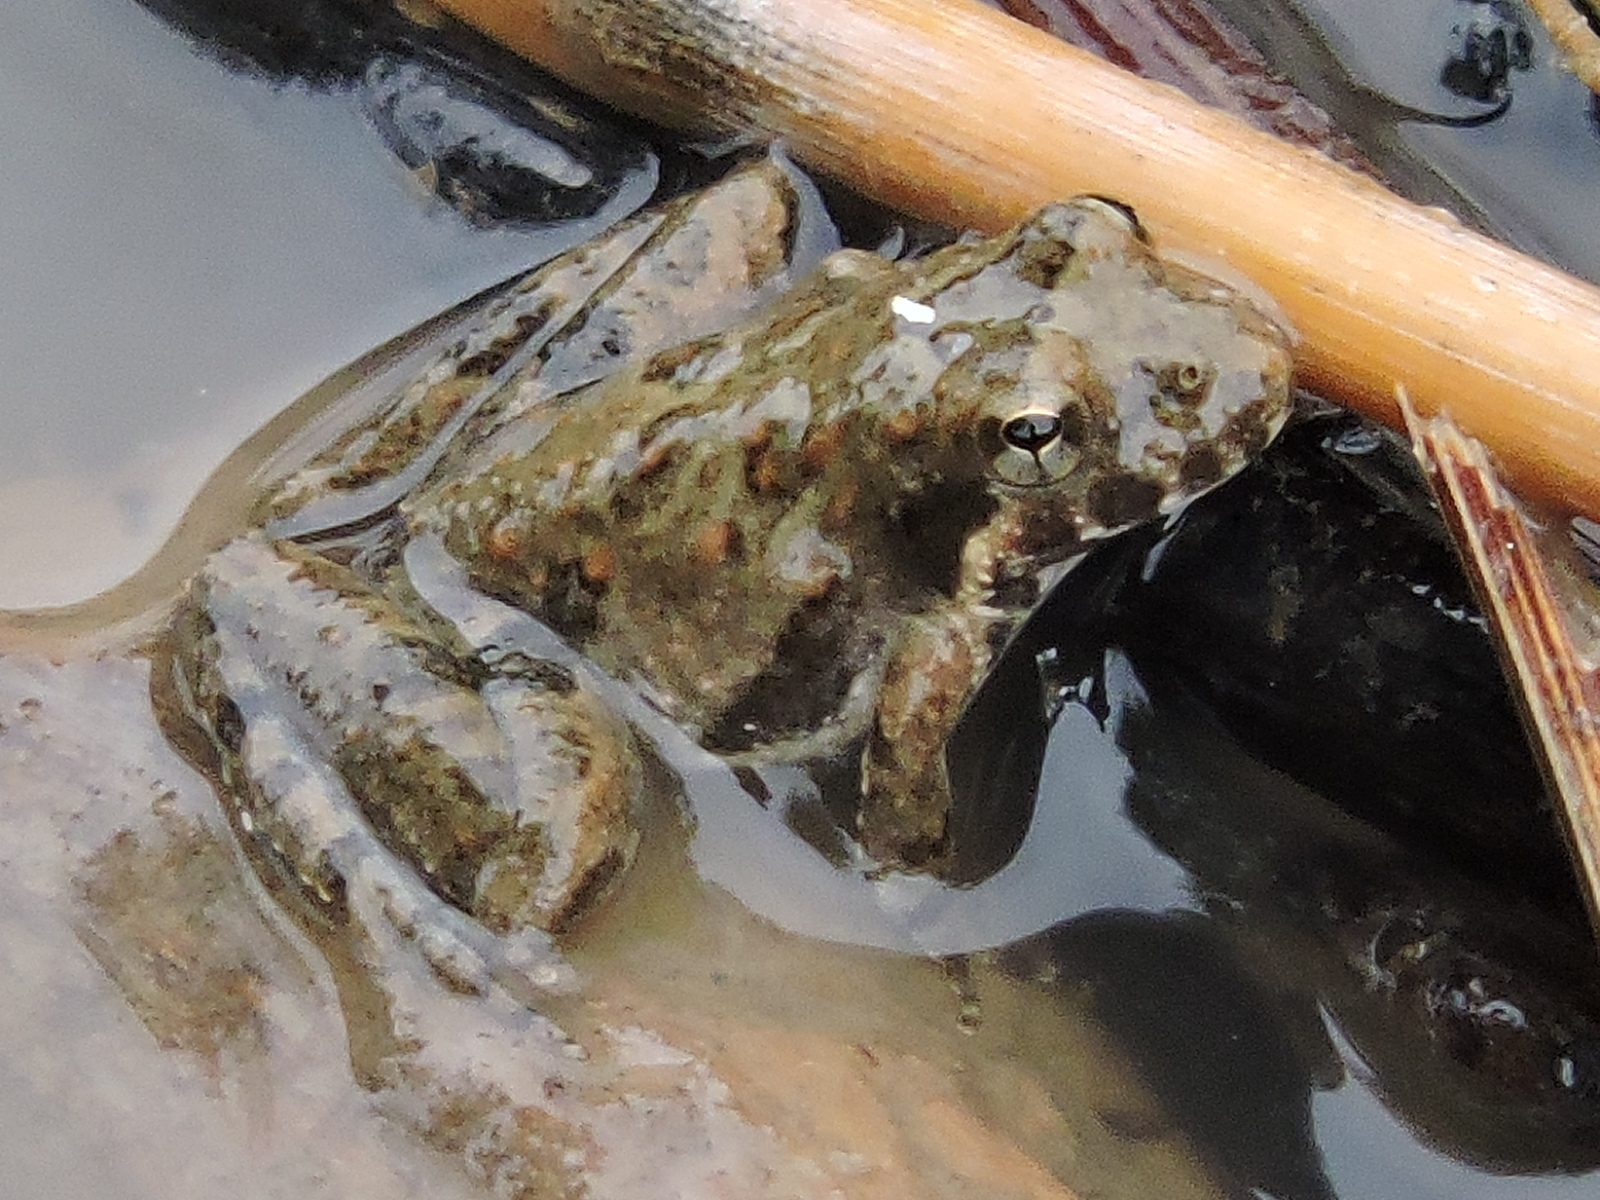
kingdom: Animalia
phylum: Chordata
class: Amphibia
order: Anura
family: Hylidae
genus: Acris
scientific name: Acris blanchardi
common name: Blanchard's cricket frog
